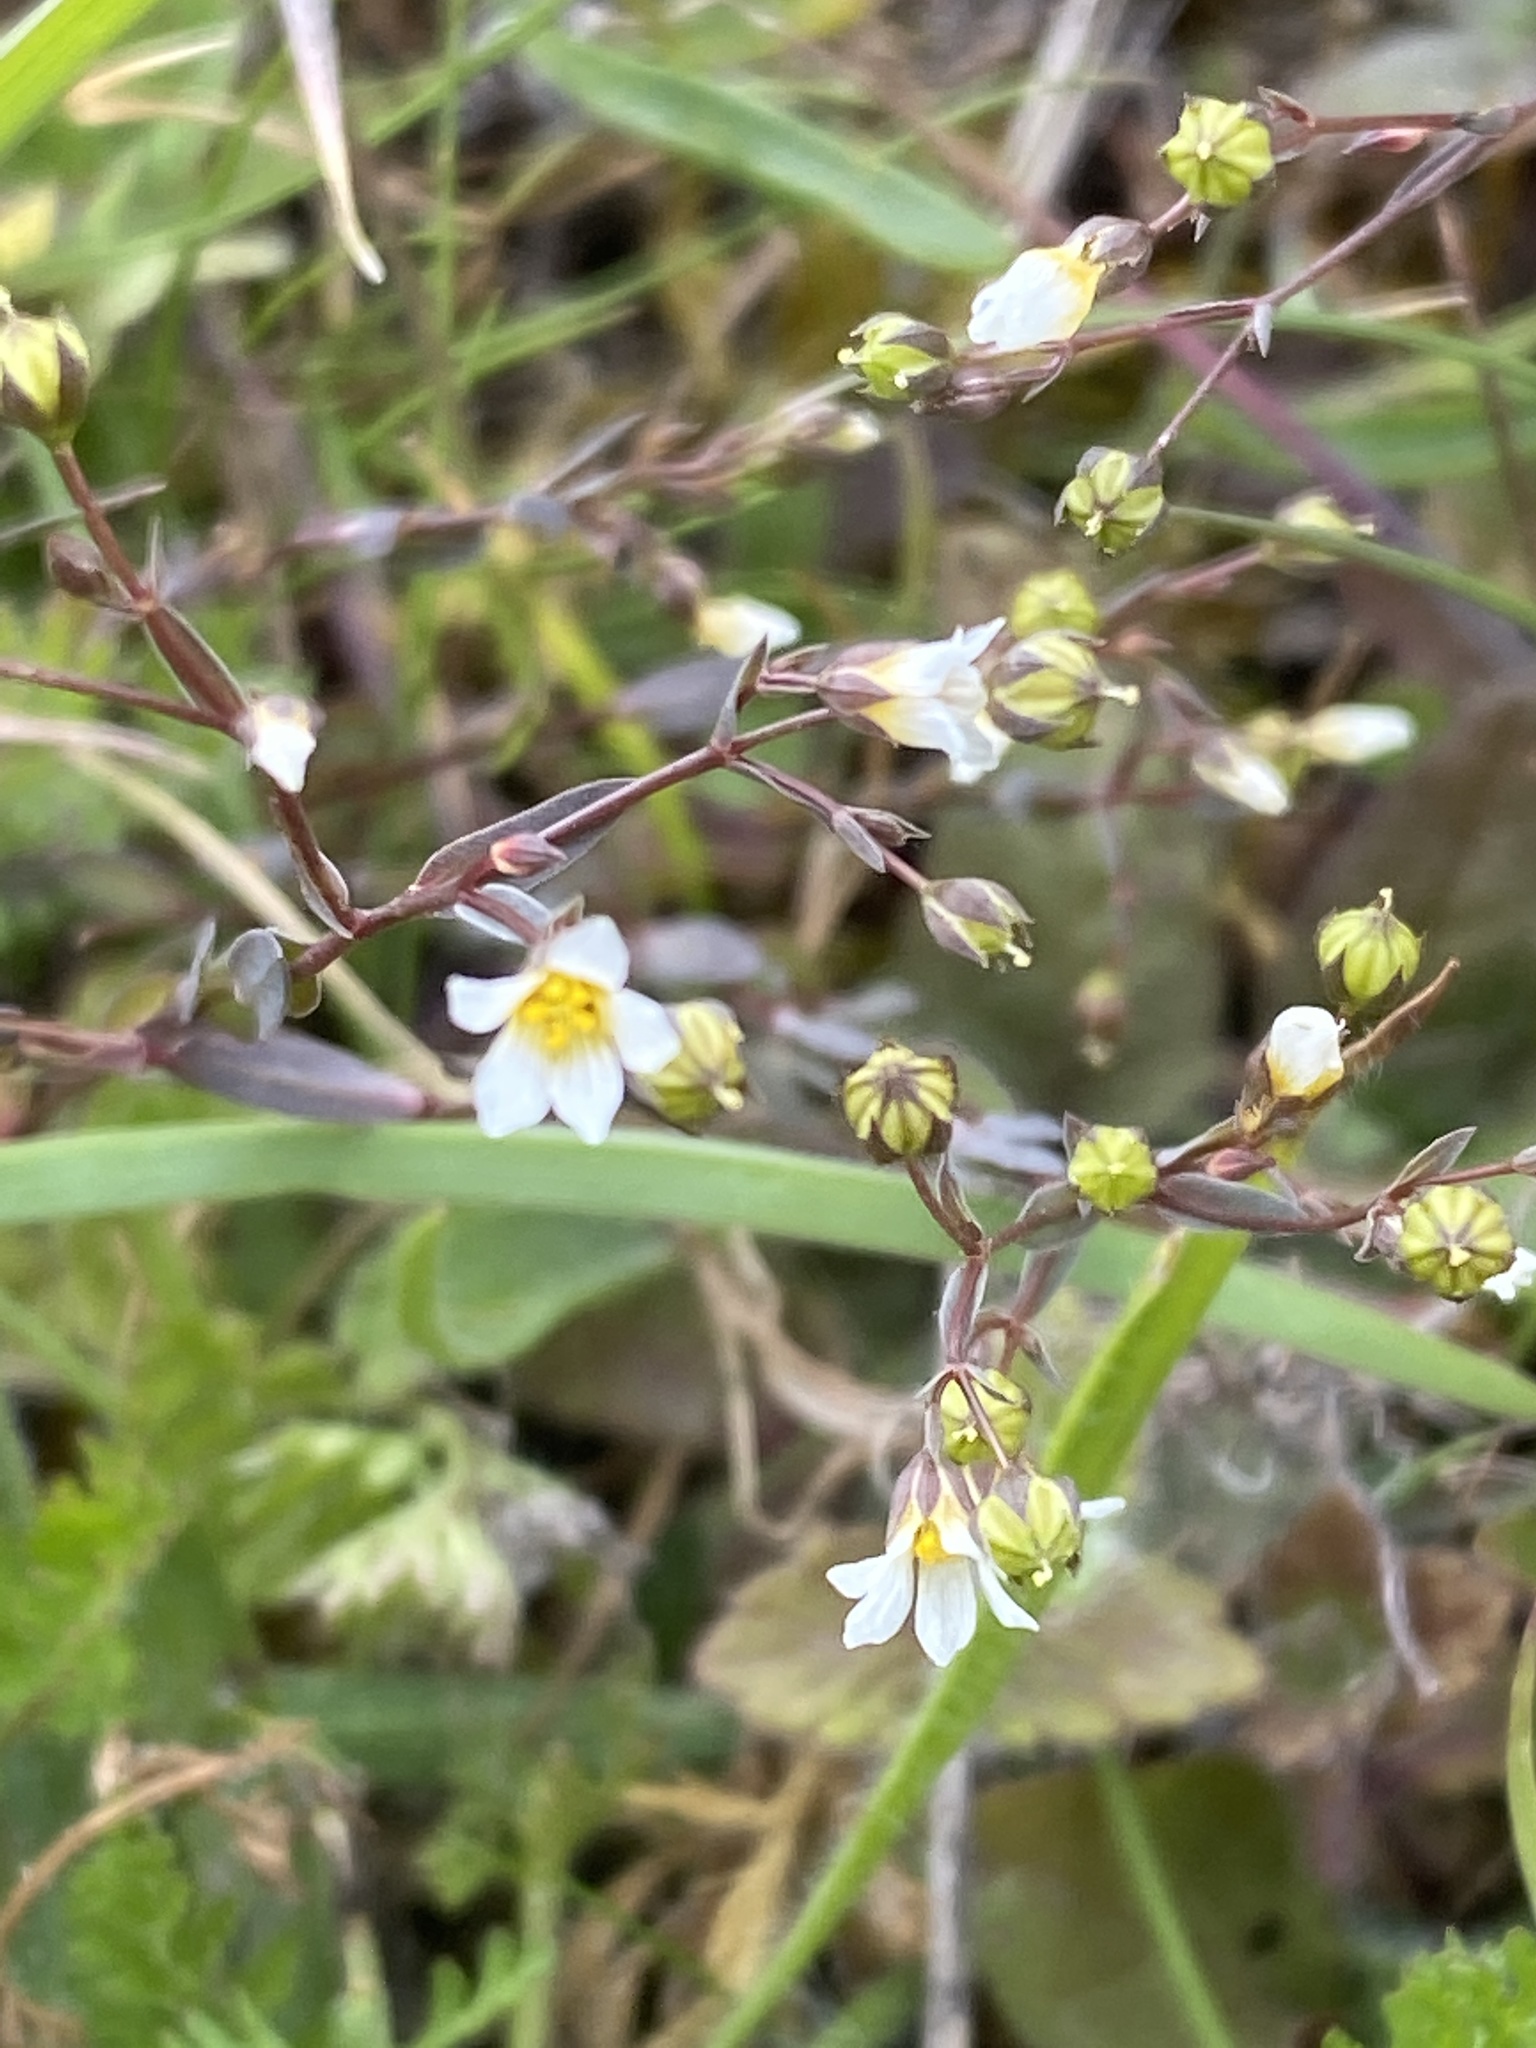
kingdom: Plantae
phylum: Tracheophyta
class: Magnoliopsida
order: Malpighiales
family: Linaceae
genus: Linum
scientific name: Linum catharticum
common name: Fairy flax
